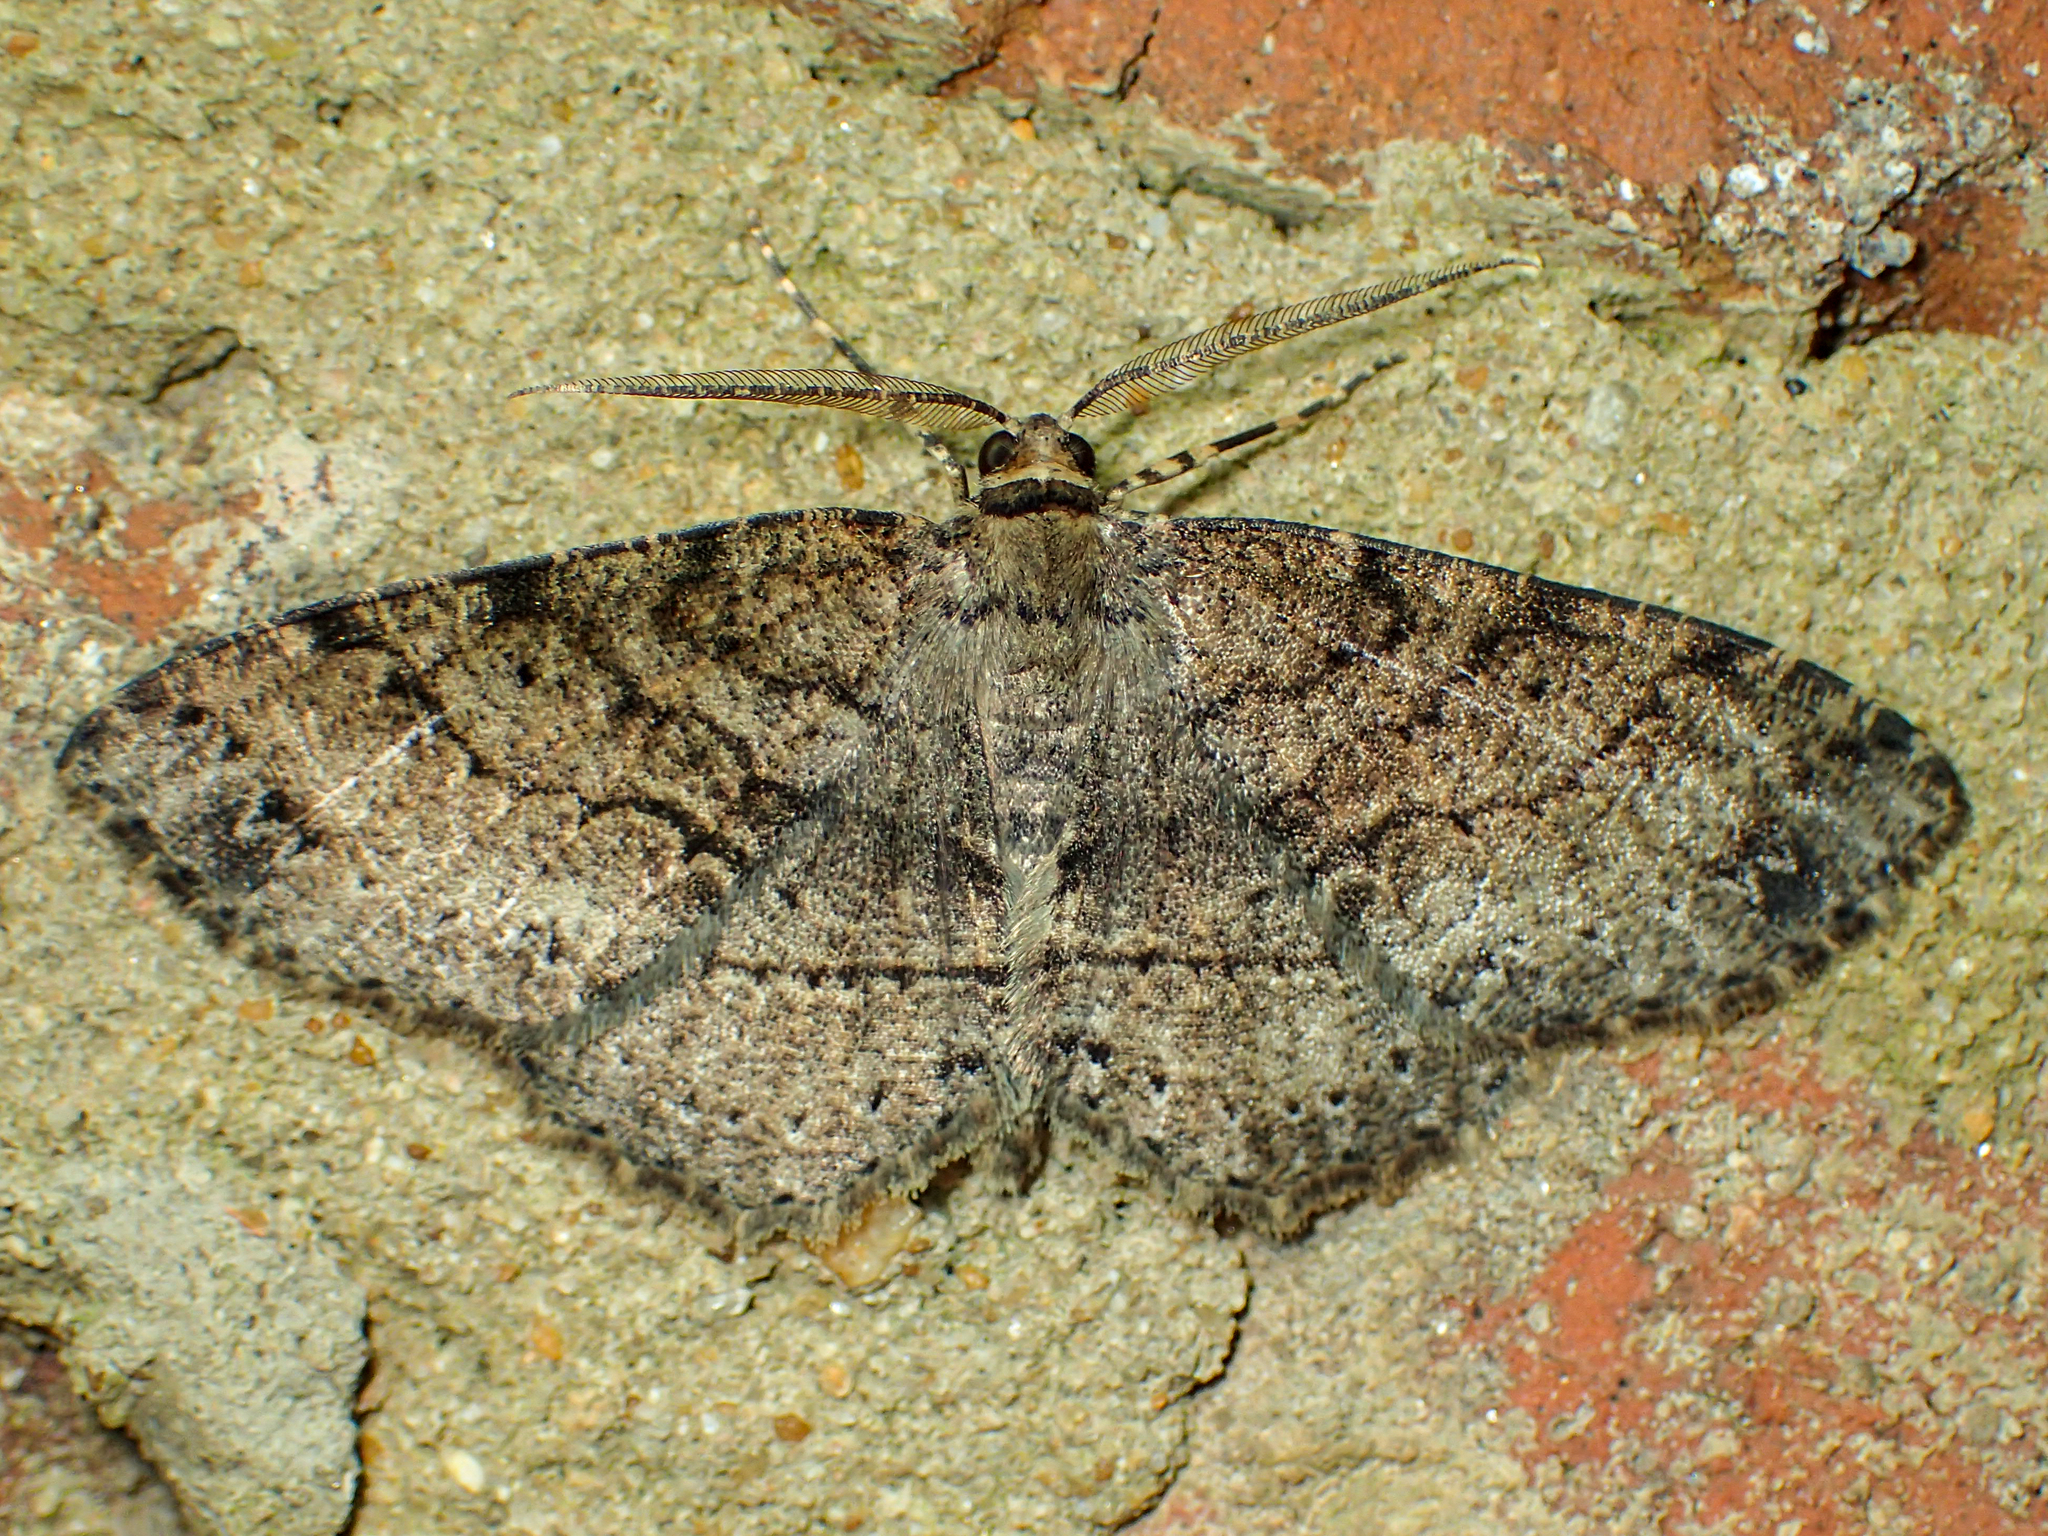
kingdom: Animalia
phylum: Arthropoda
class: Insecta
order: Lepidoptera
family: Geometridae
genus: Melanolophia
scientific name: Melanolophia canadaria
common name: Canadian melanolophia
